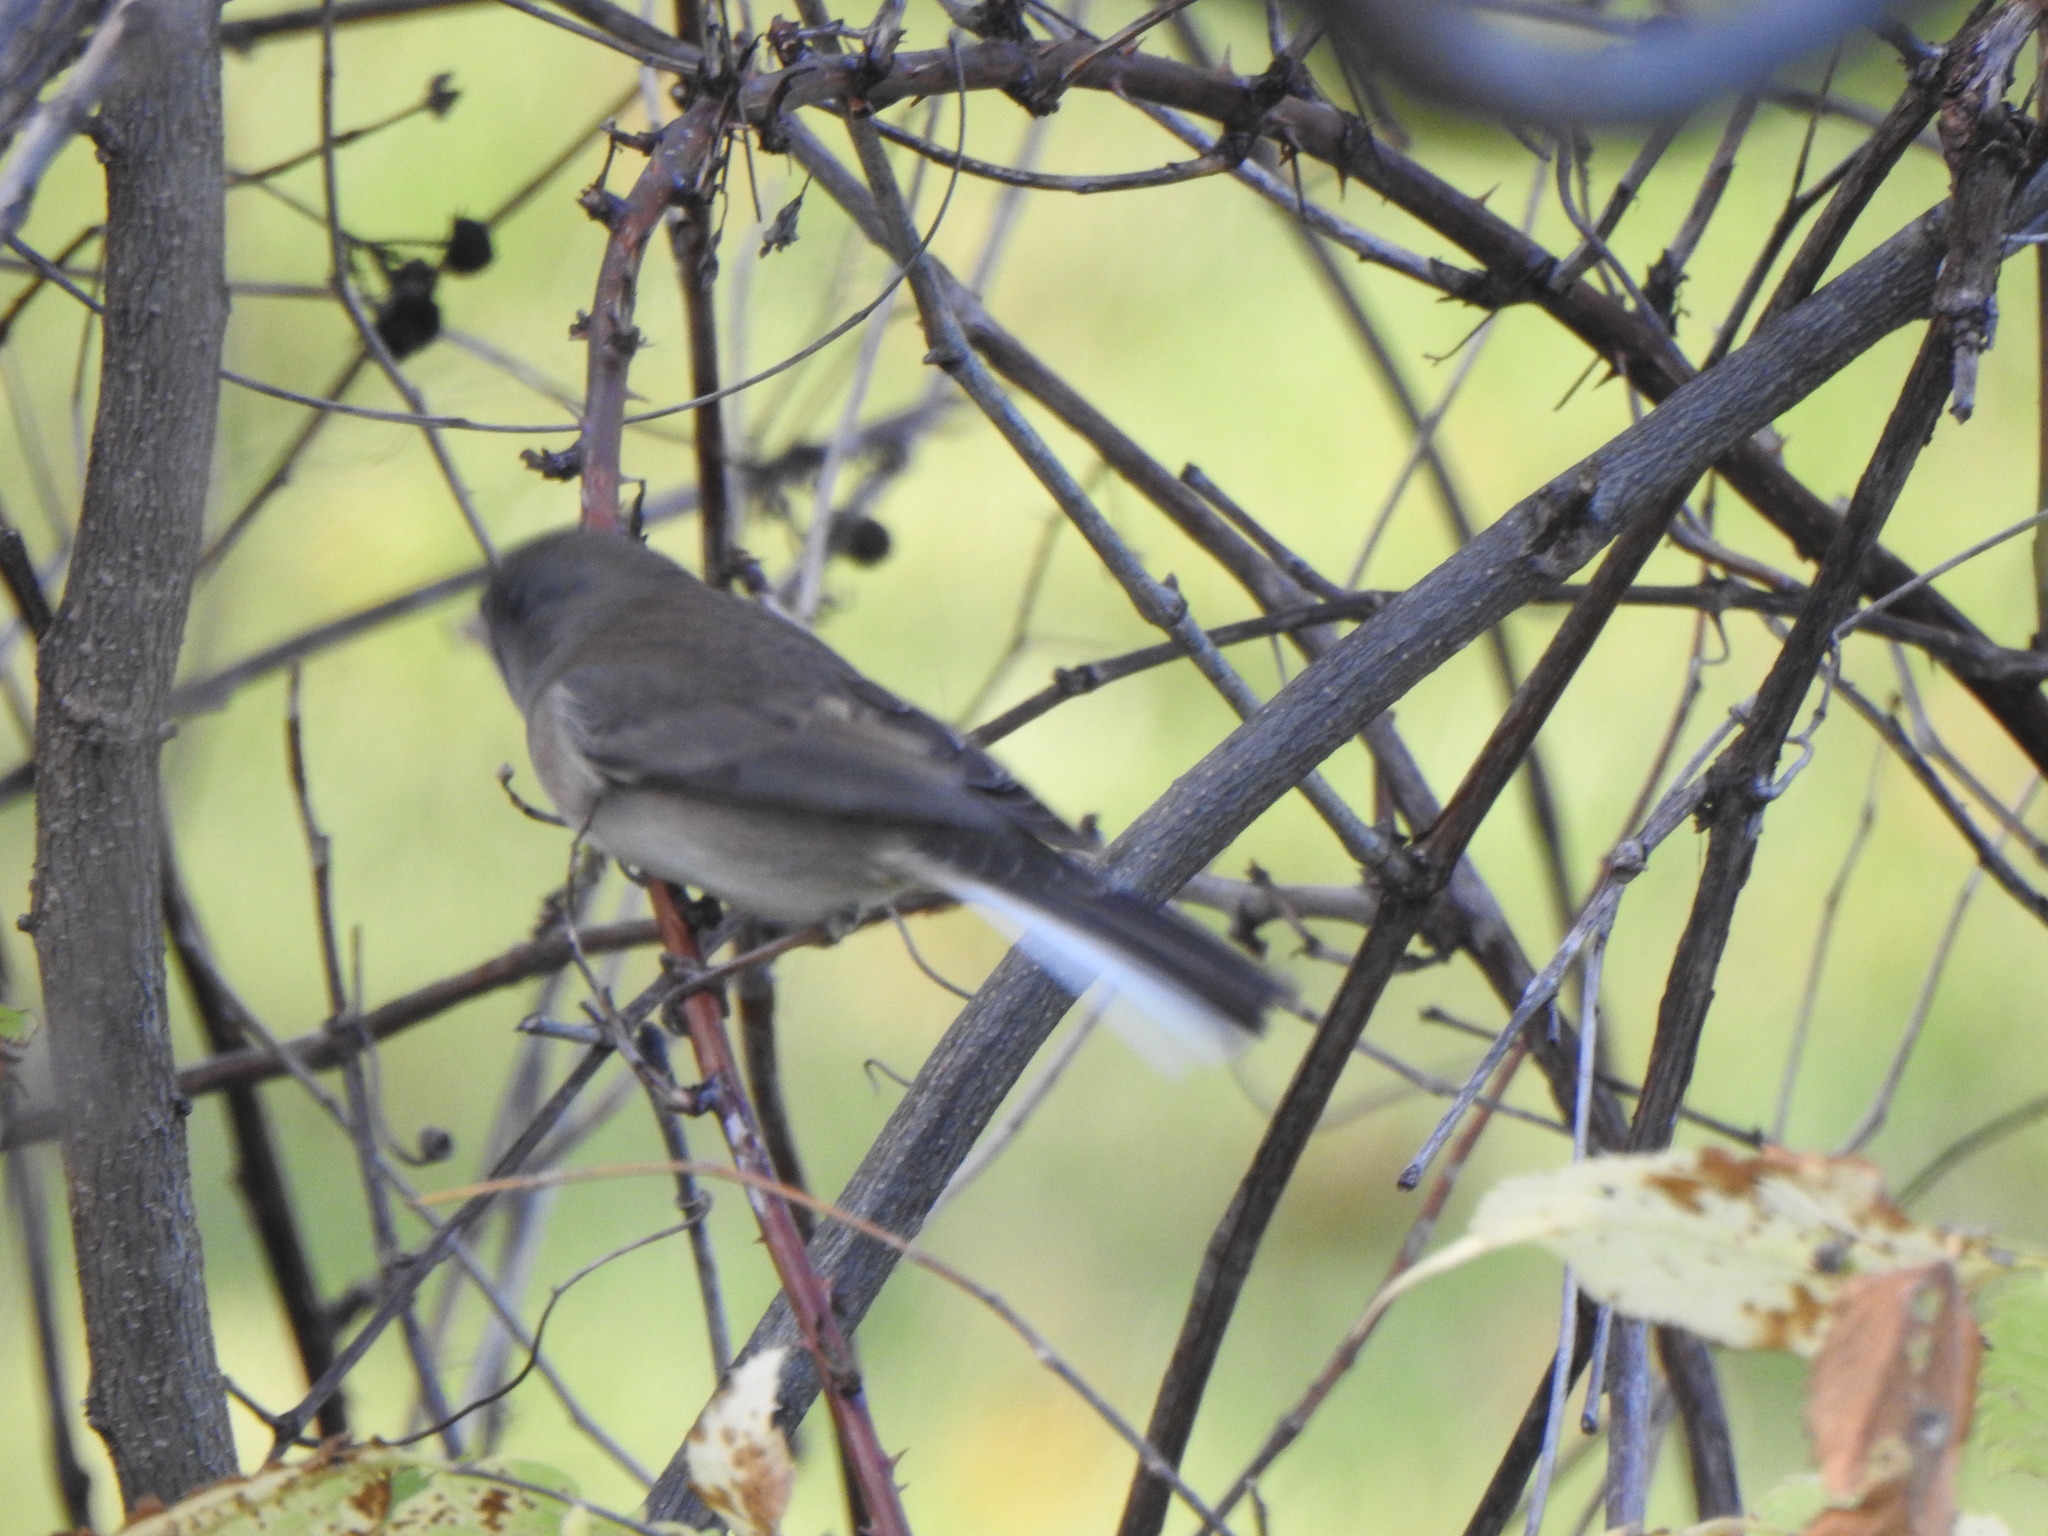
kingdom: Animalia
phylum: Chordata
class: Aves
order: Passeriformes
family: Passerellidae
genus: Junco
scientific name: Junco hyemalis
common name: Dark-eyed junco
